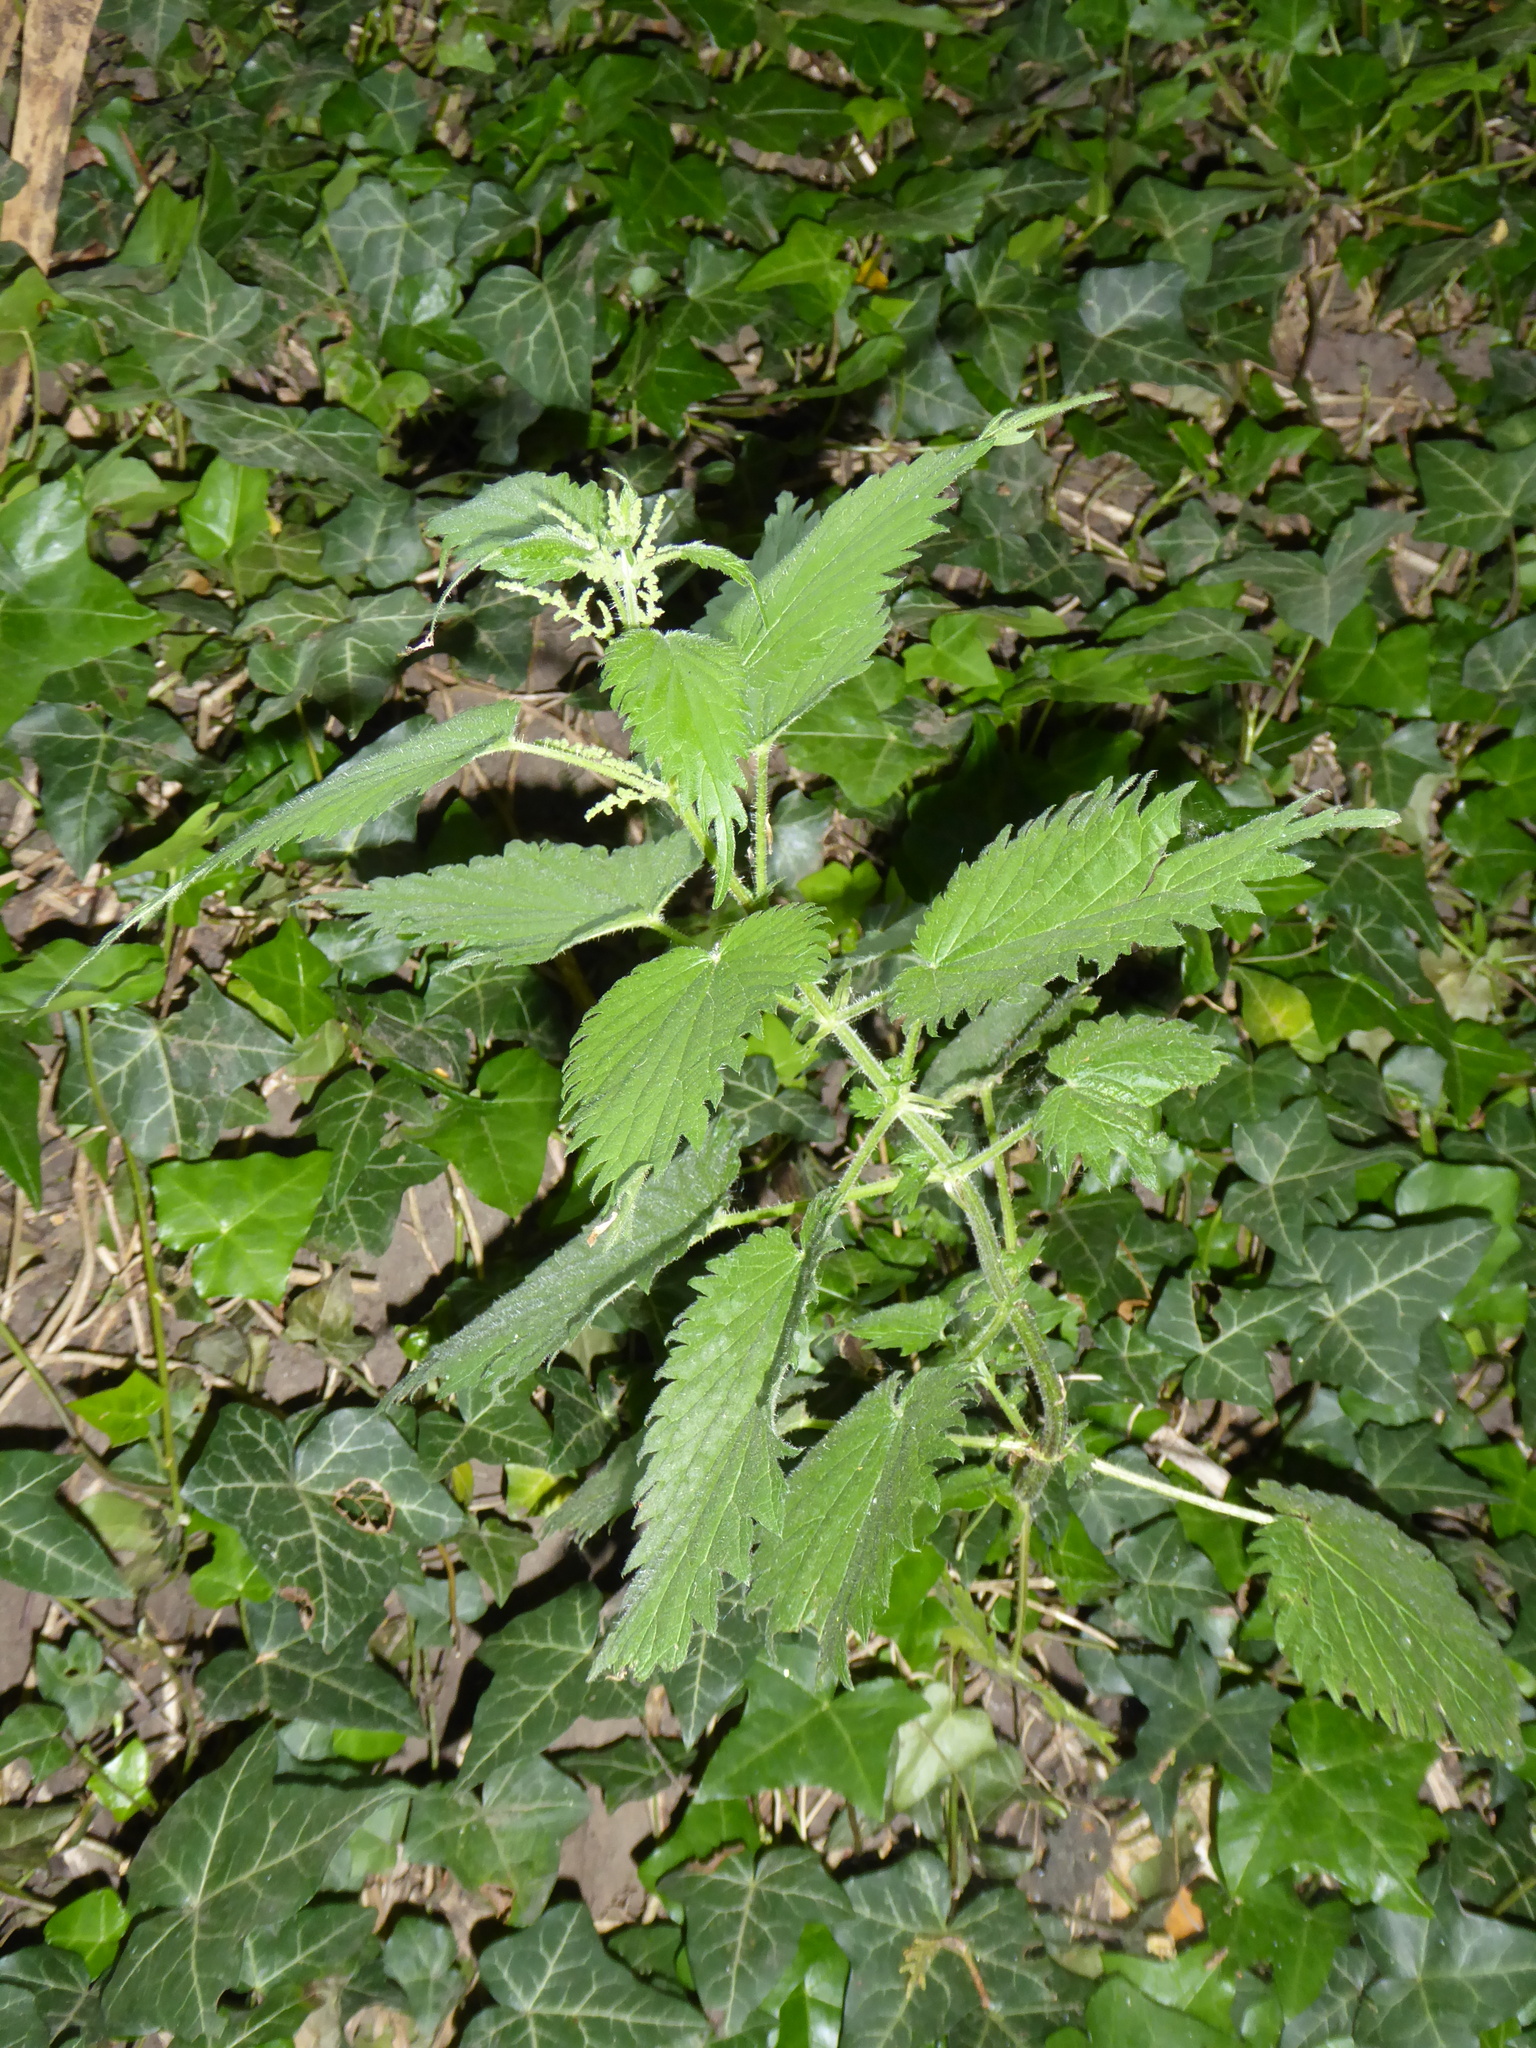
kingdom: Plantae
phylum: Tracheophyta
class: Magnoliopsida
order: Rosales
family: Urticaceae
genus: Urtica
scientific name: Urtica dioica
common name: Common nettle
